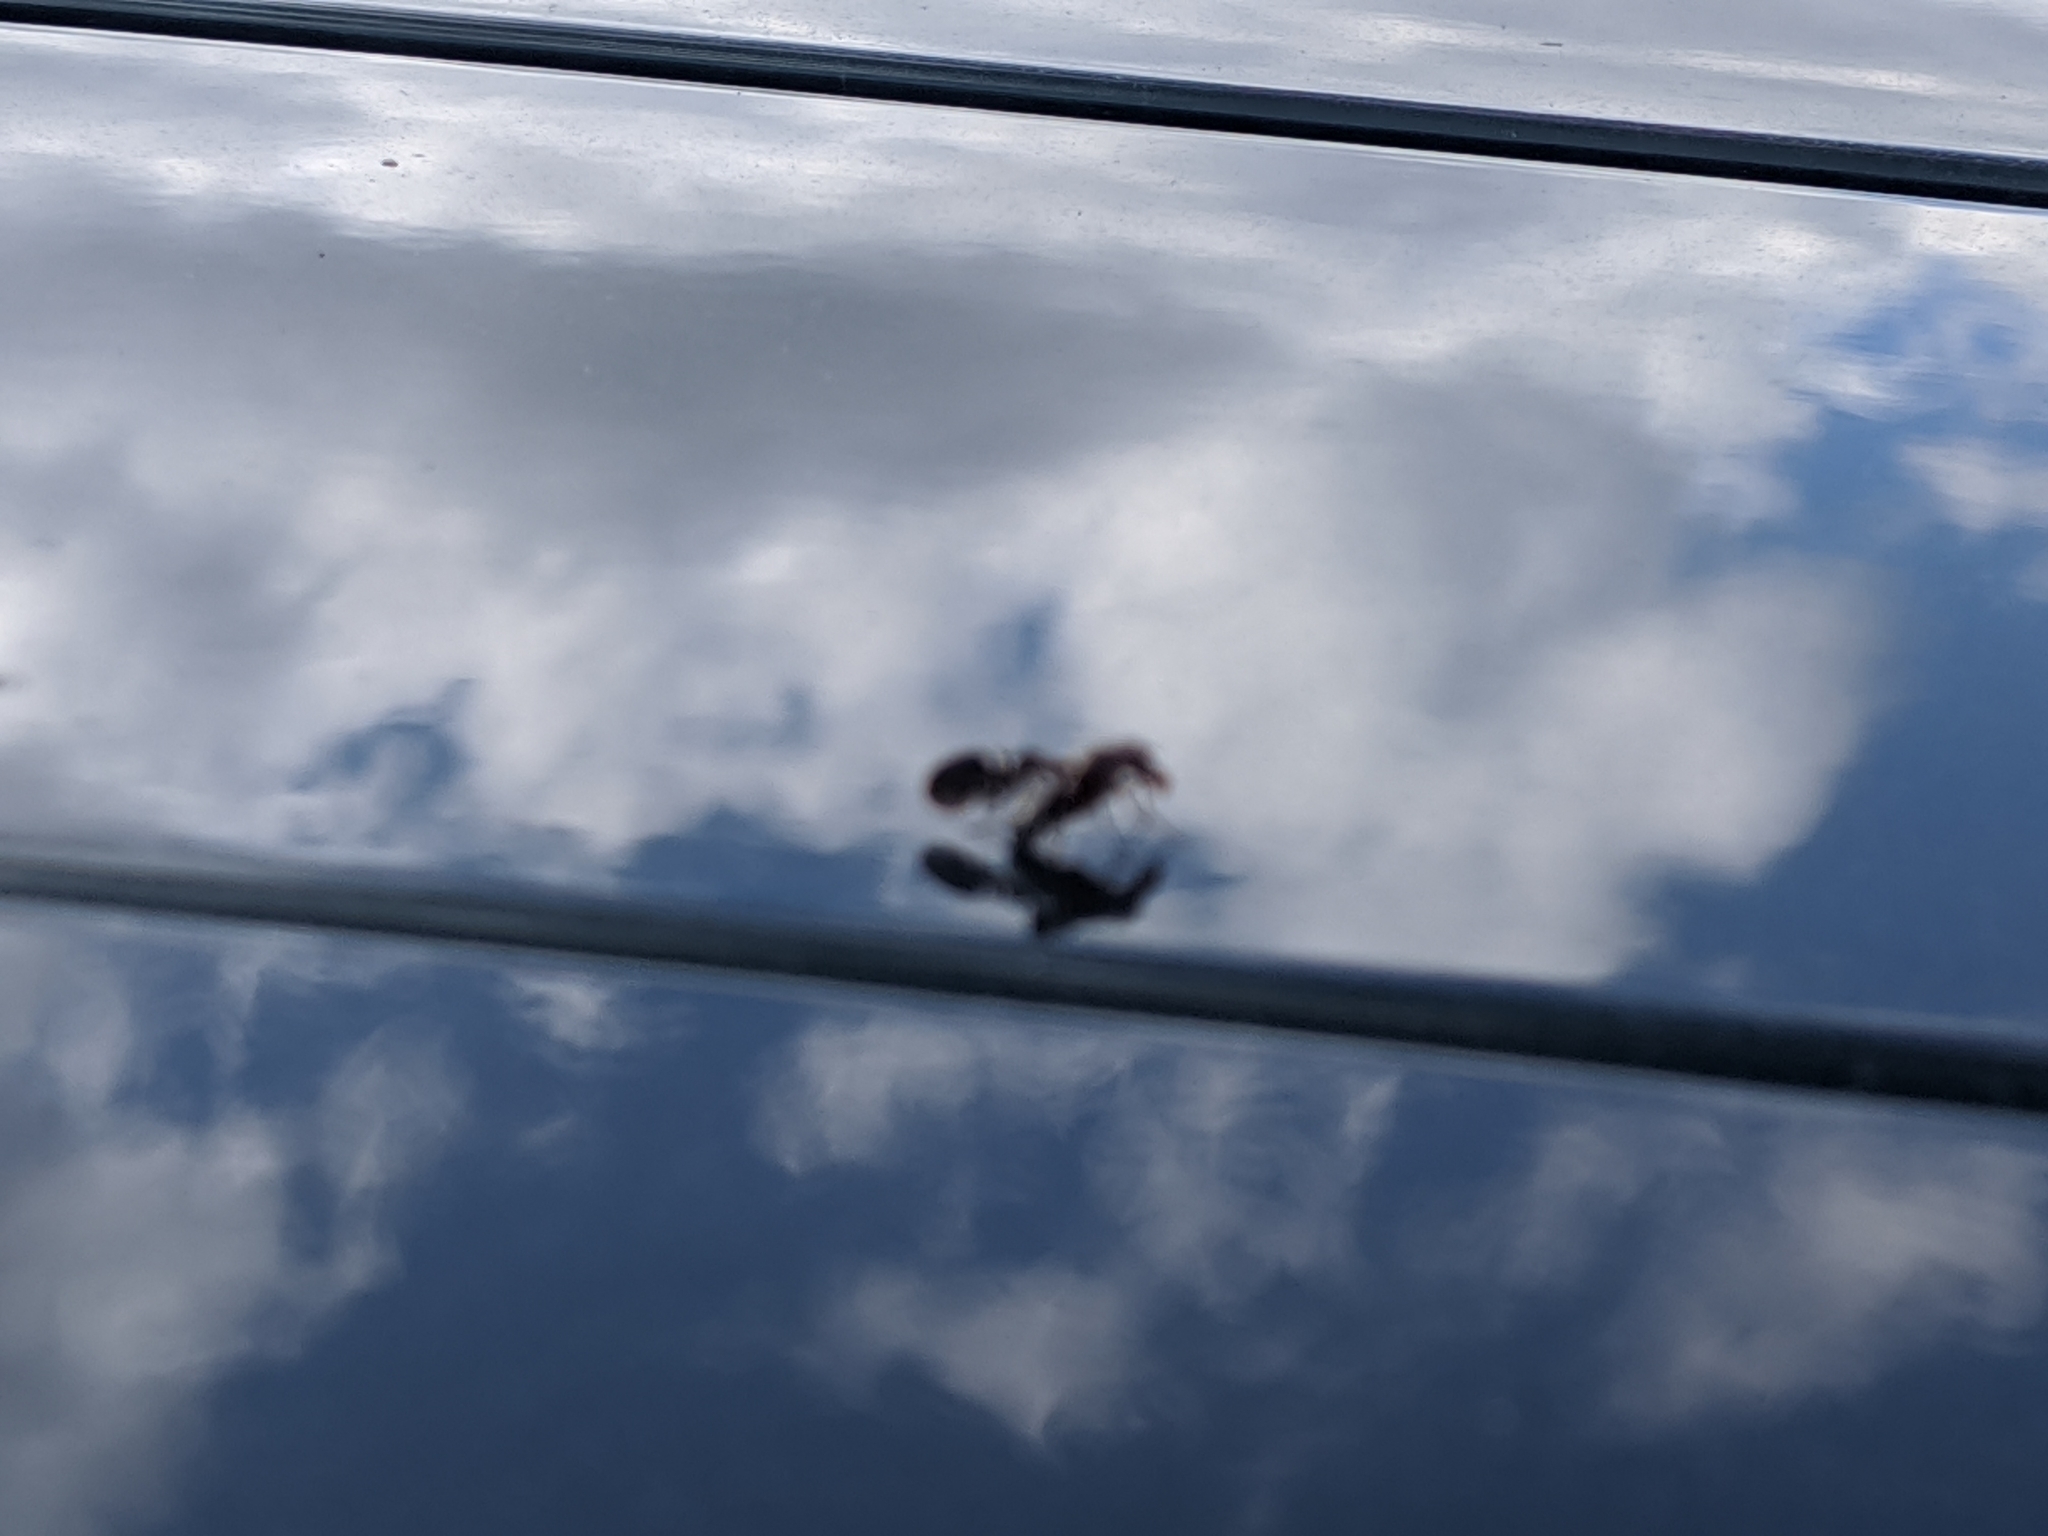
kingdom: Animalia
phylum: Arthropoda
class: Insecta
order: Diptera
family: Ulidiidae
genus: Delphinia
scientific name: Delphinia picta
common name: Common picture-winged fly
